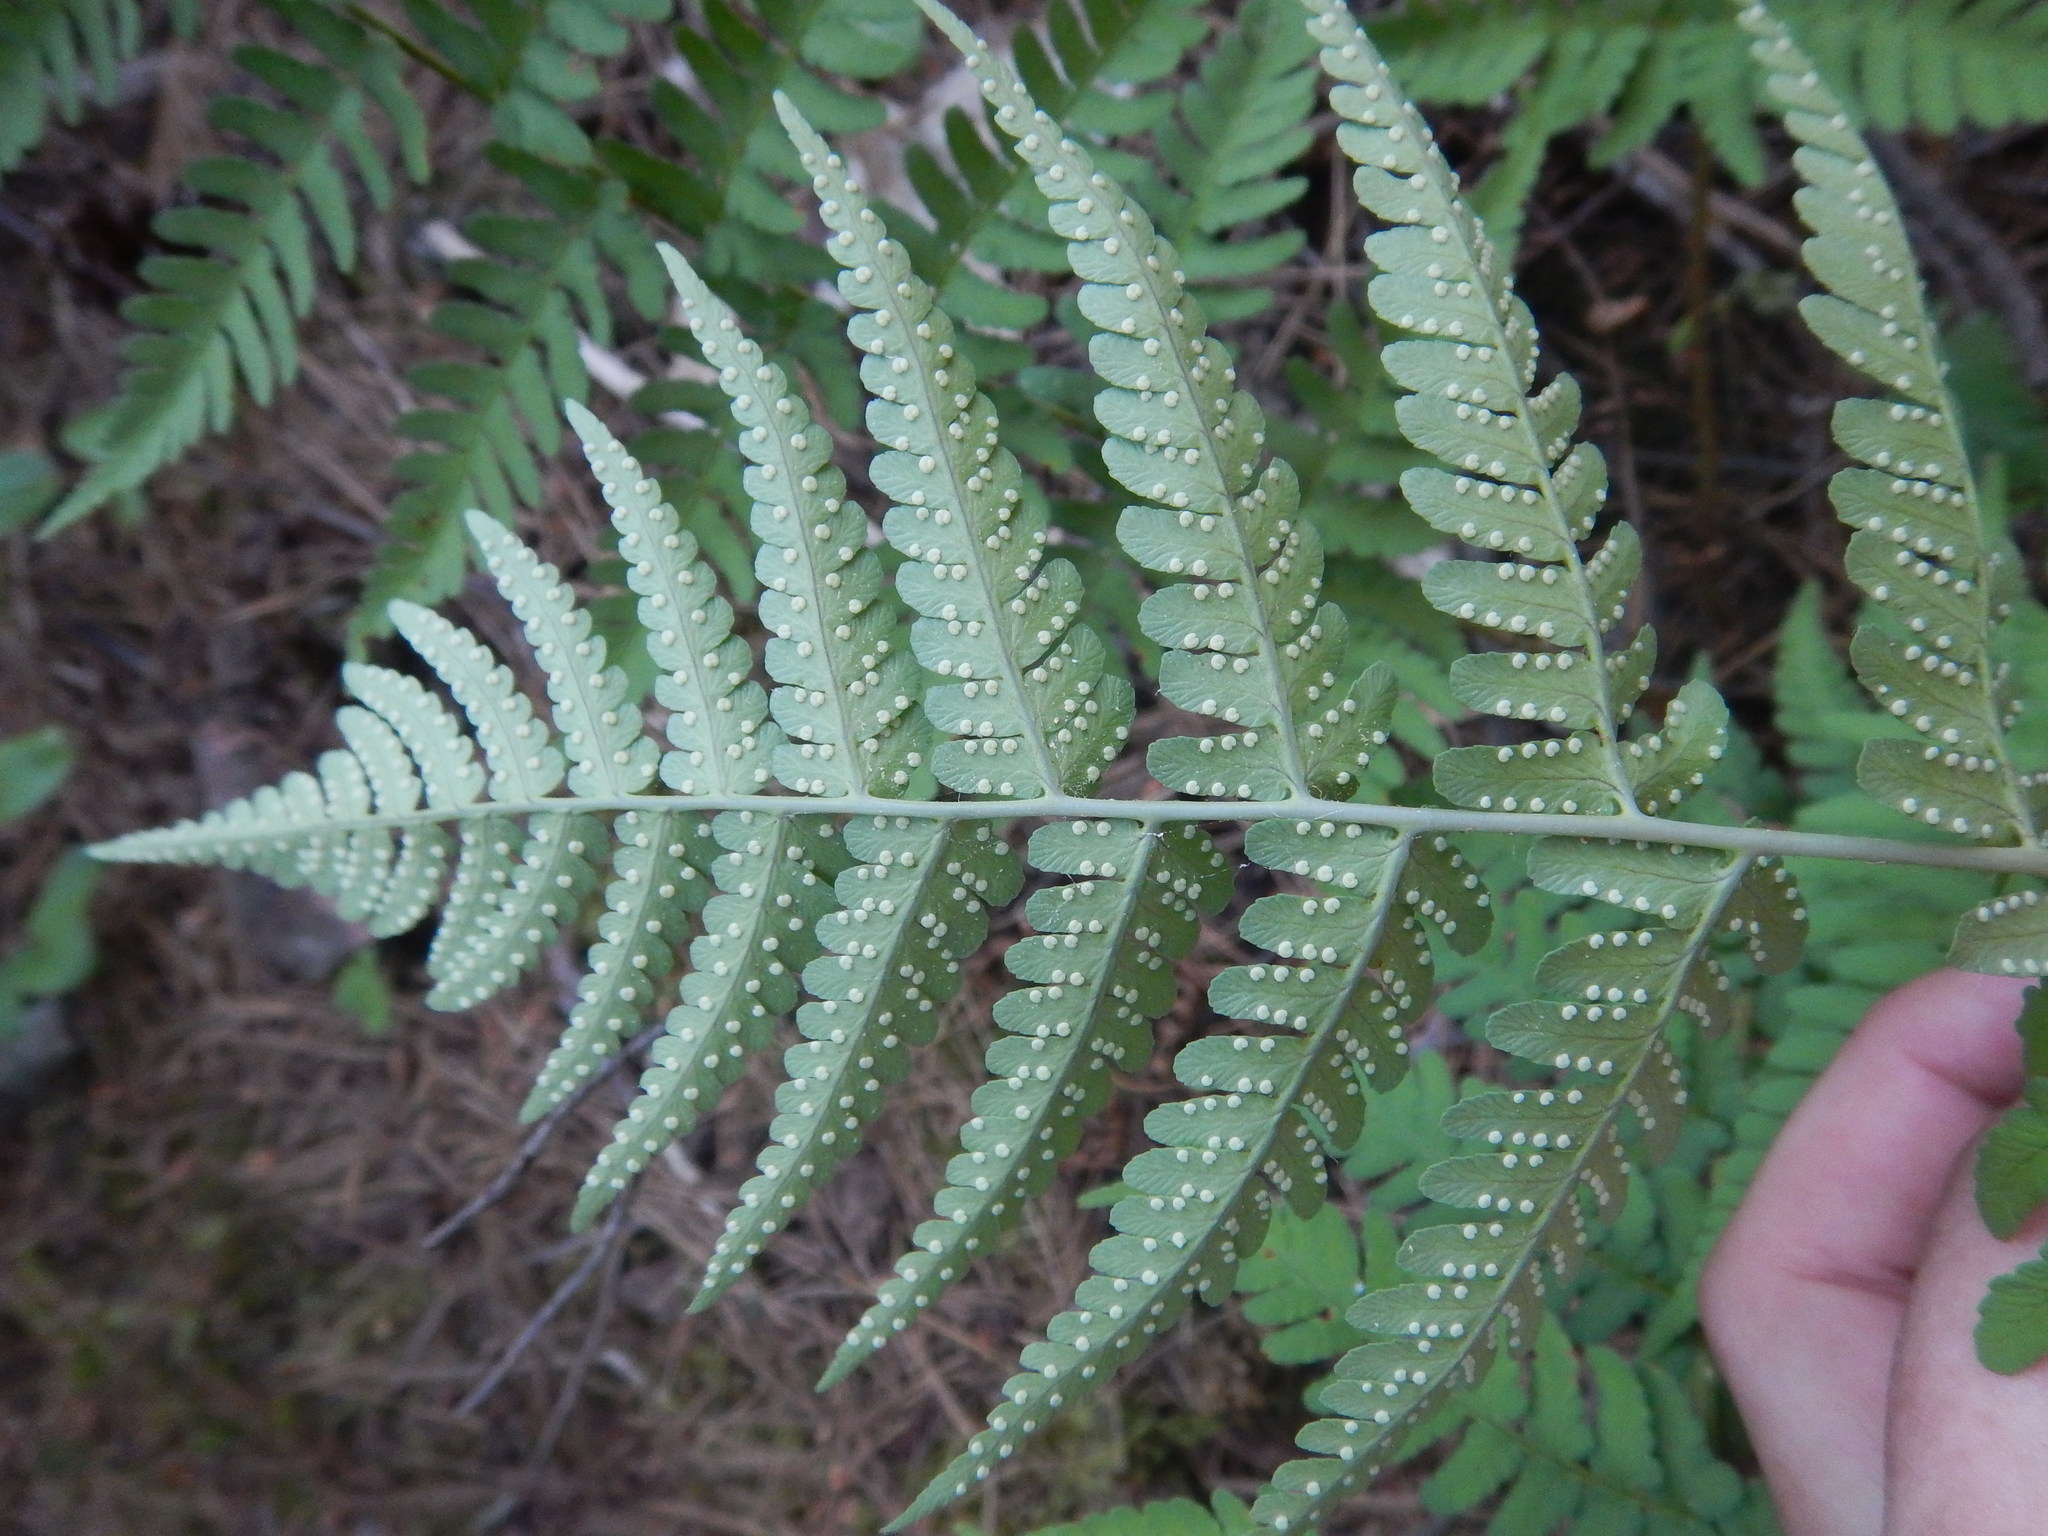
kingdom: Plantae
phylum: Tracheophyta
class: Polypodiopsida
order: Polypodiales
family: Dryopteridaceae
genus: Dryopteris
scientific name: Dryopteris marginalis
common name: Marginal wood fern
